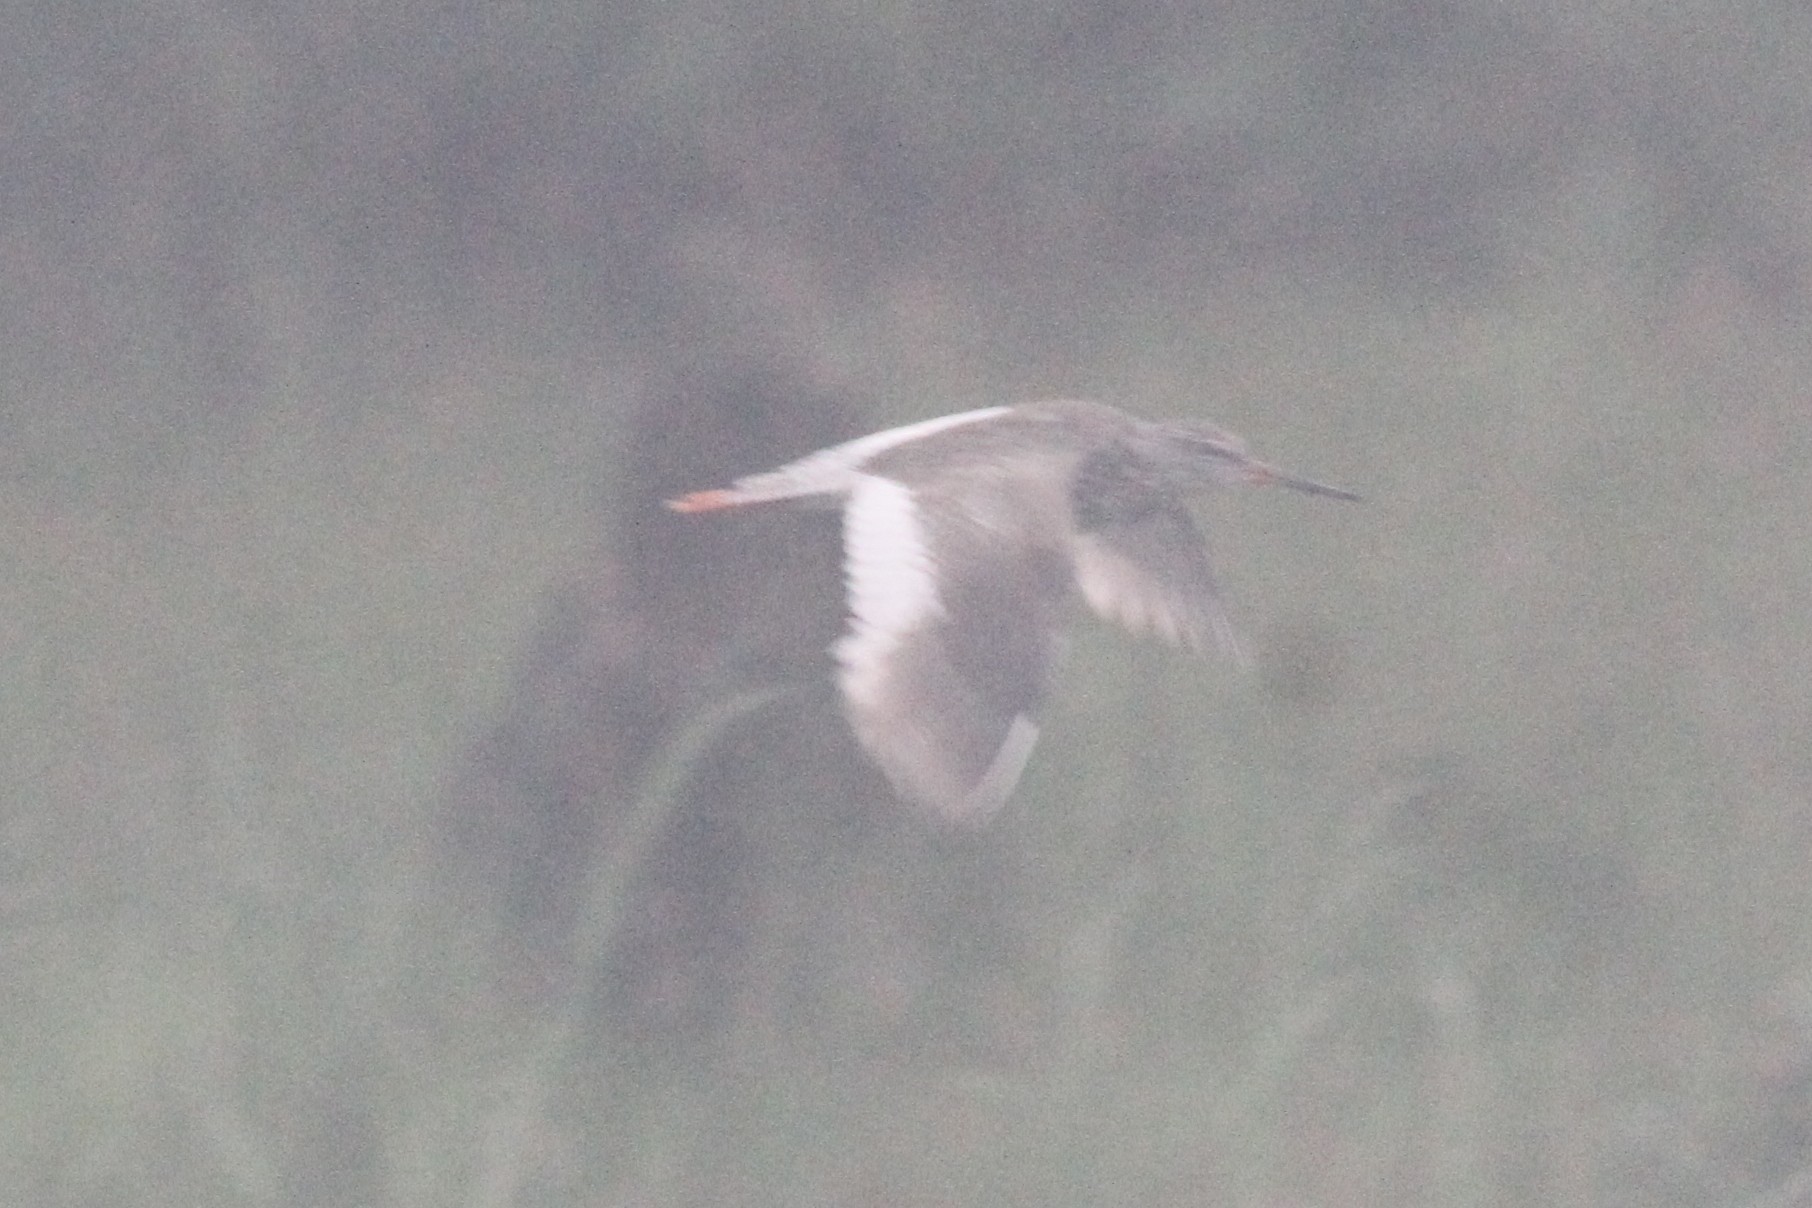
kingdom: Animalia
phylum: Chordata
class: Aves
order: Charadriiformes
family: Scolopacidae
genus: Tringa
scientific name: Tringa totanus
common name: Common redshank
